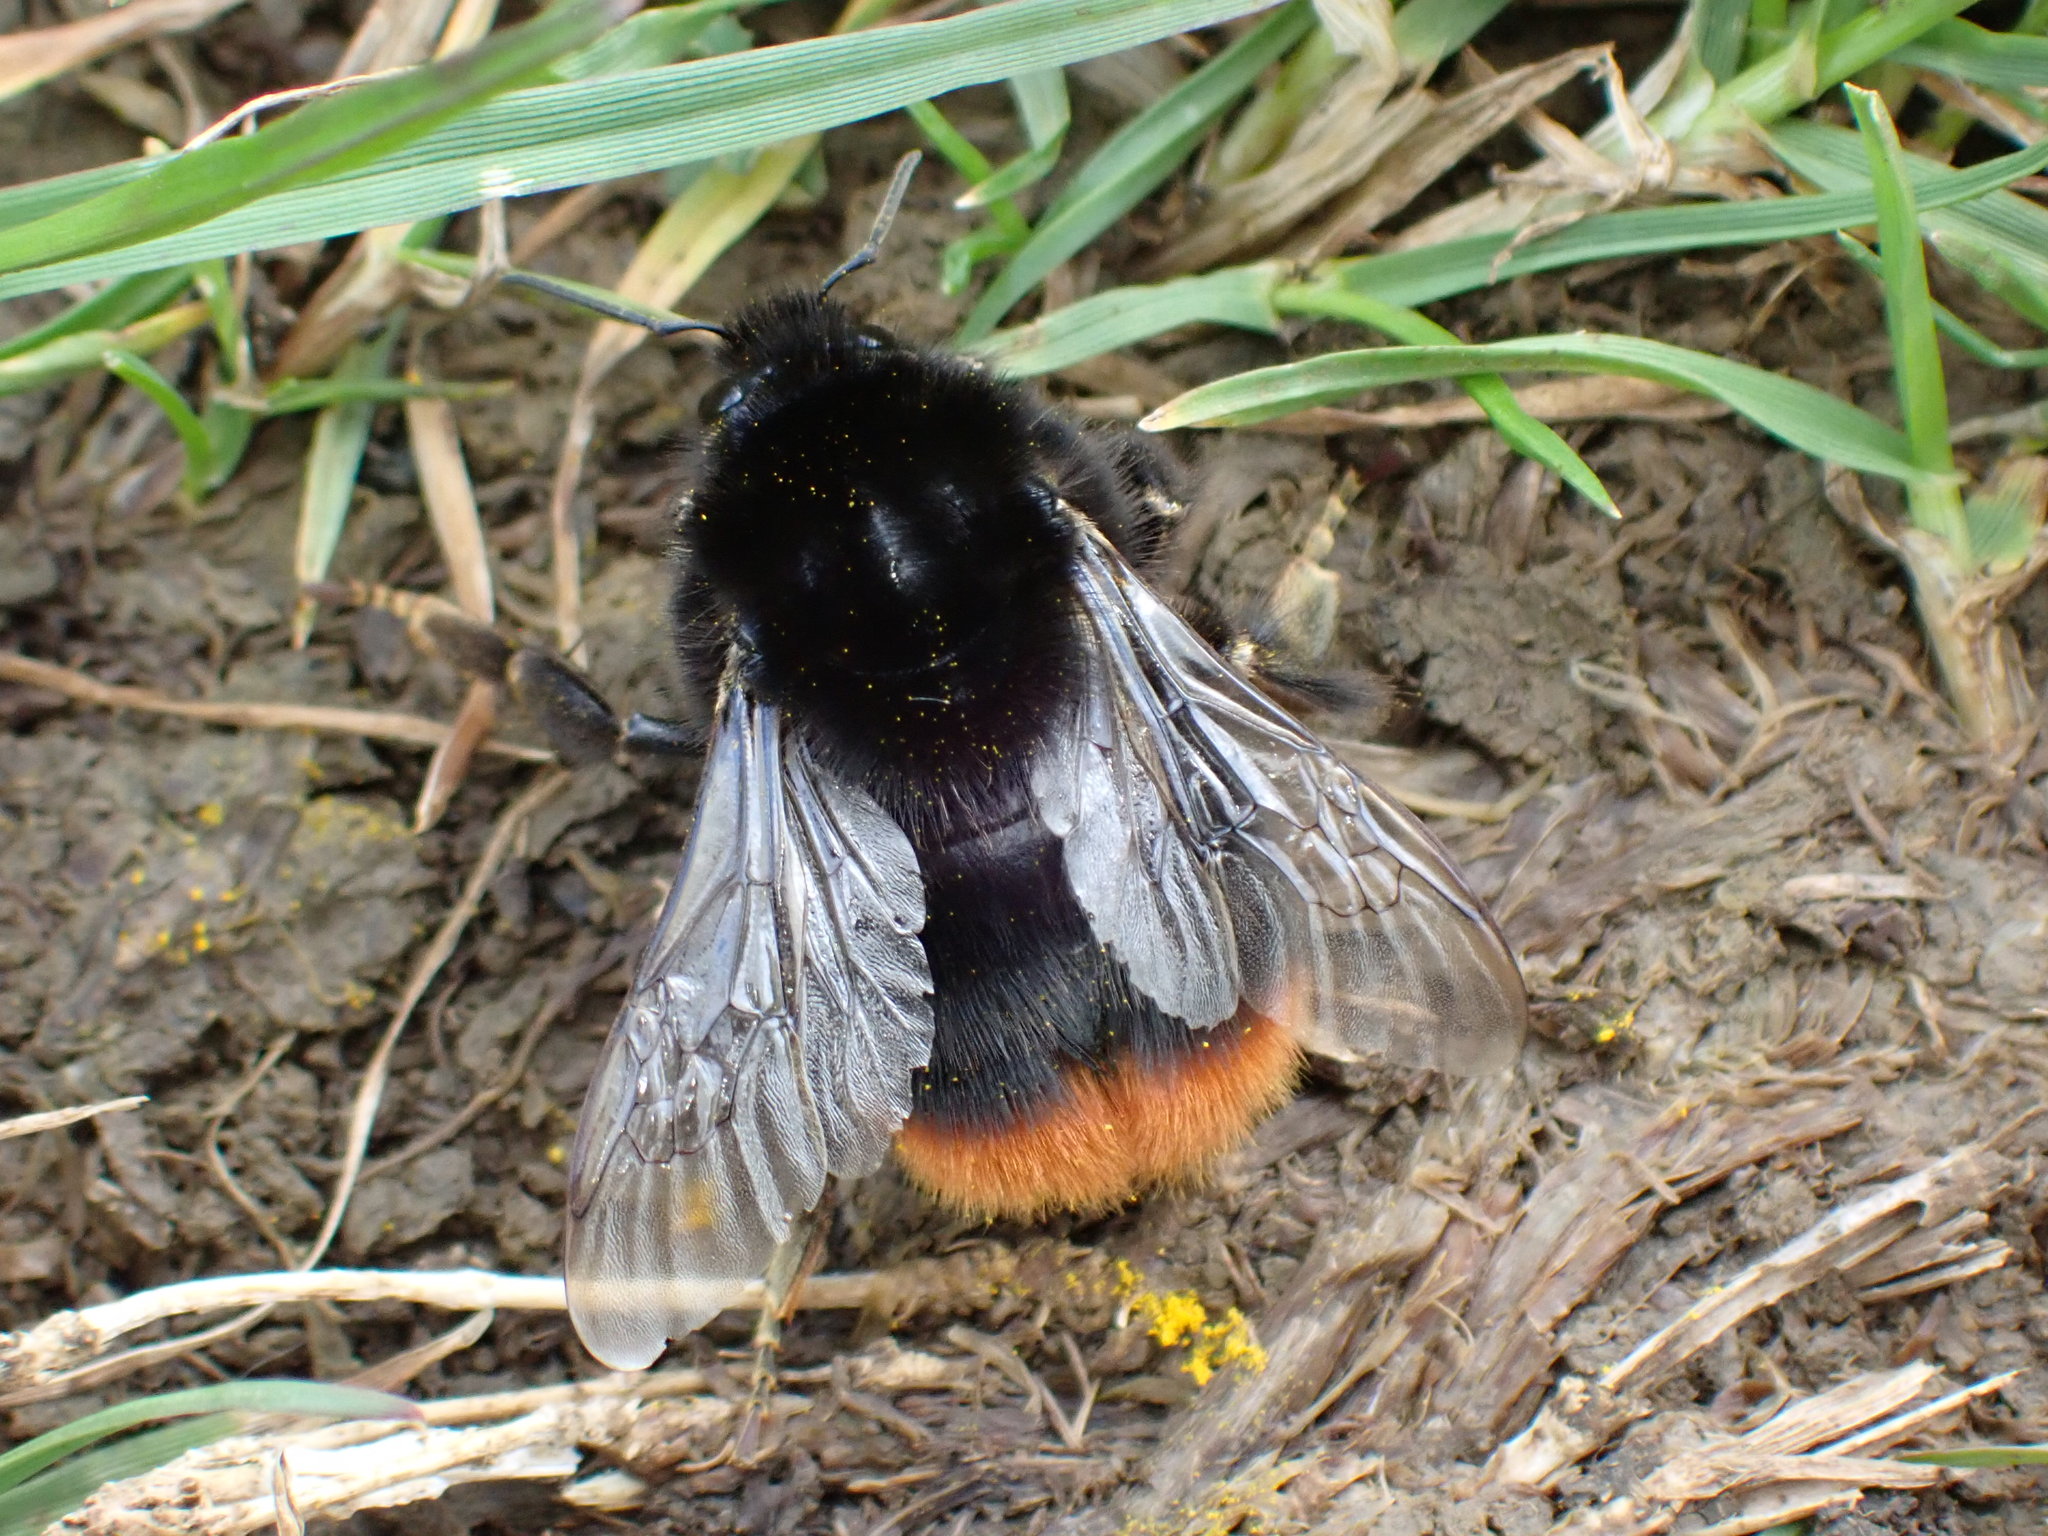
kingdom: Animalia
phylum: Arthropoda
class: Insecta
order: Hymenoptera
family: Apidae
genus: Bombus
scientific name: Bombus lapidarius
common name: Large red-tailed humble-bee
